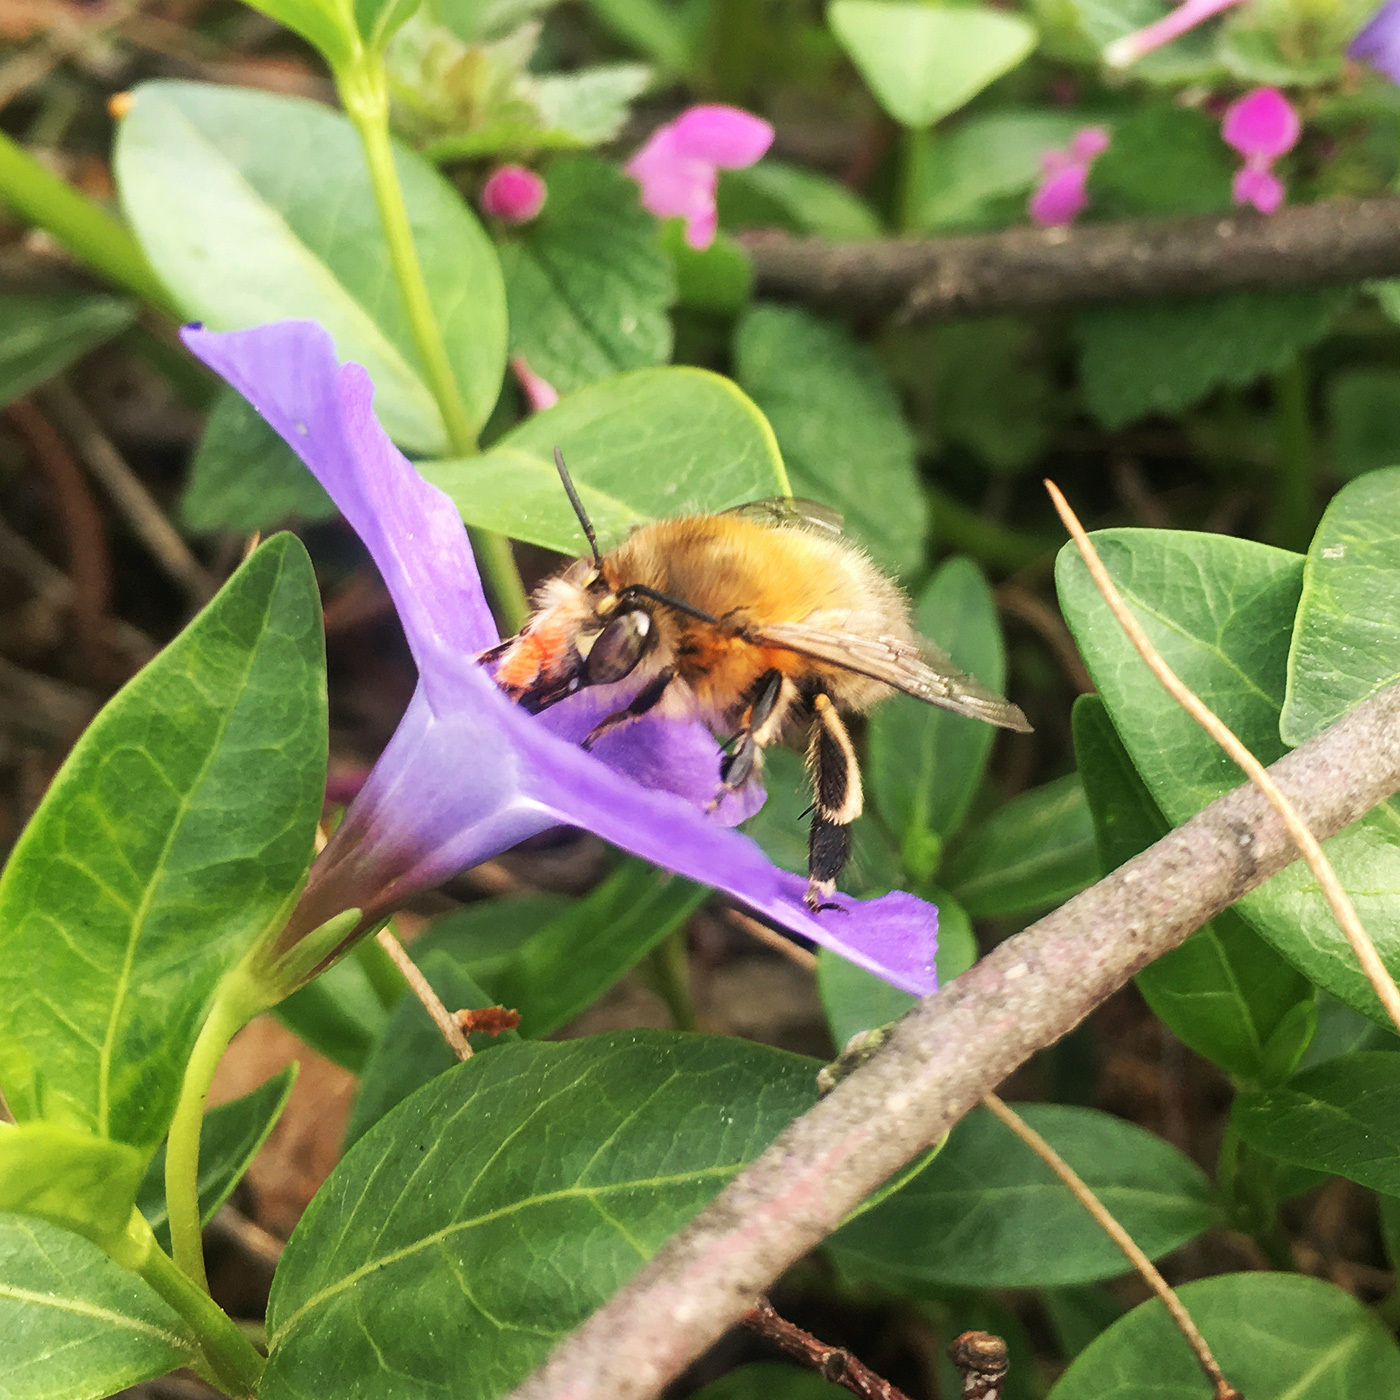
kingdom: Animalia
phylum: Arthropoda
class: Insecta
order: Hymenoptera
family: Apidae
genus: Anthophora
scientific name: Anthophora plumipes
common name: Hairy-footed flower bee
